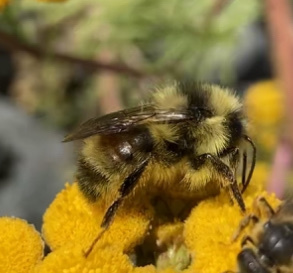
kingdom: Animalia
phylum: Arthropoda
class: Insecta
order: Hymenoptera
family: Apidae
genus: Bombus
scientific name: Bombus vancouverensis
